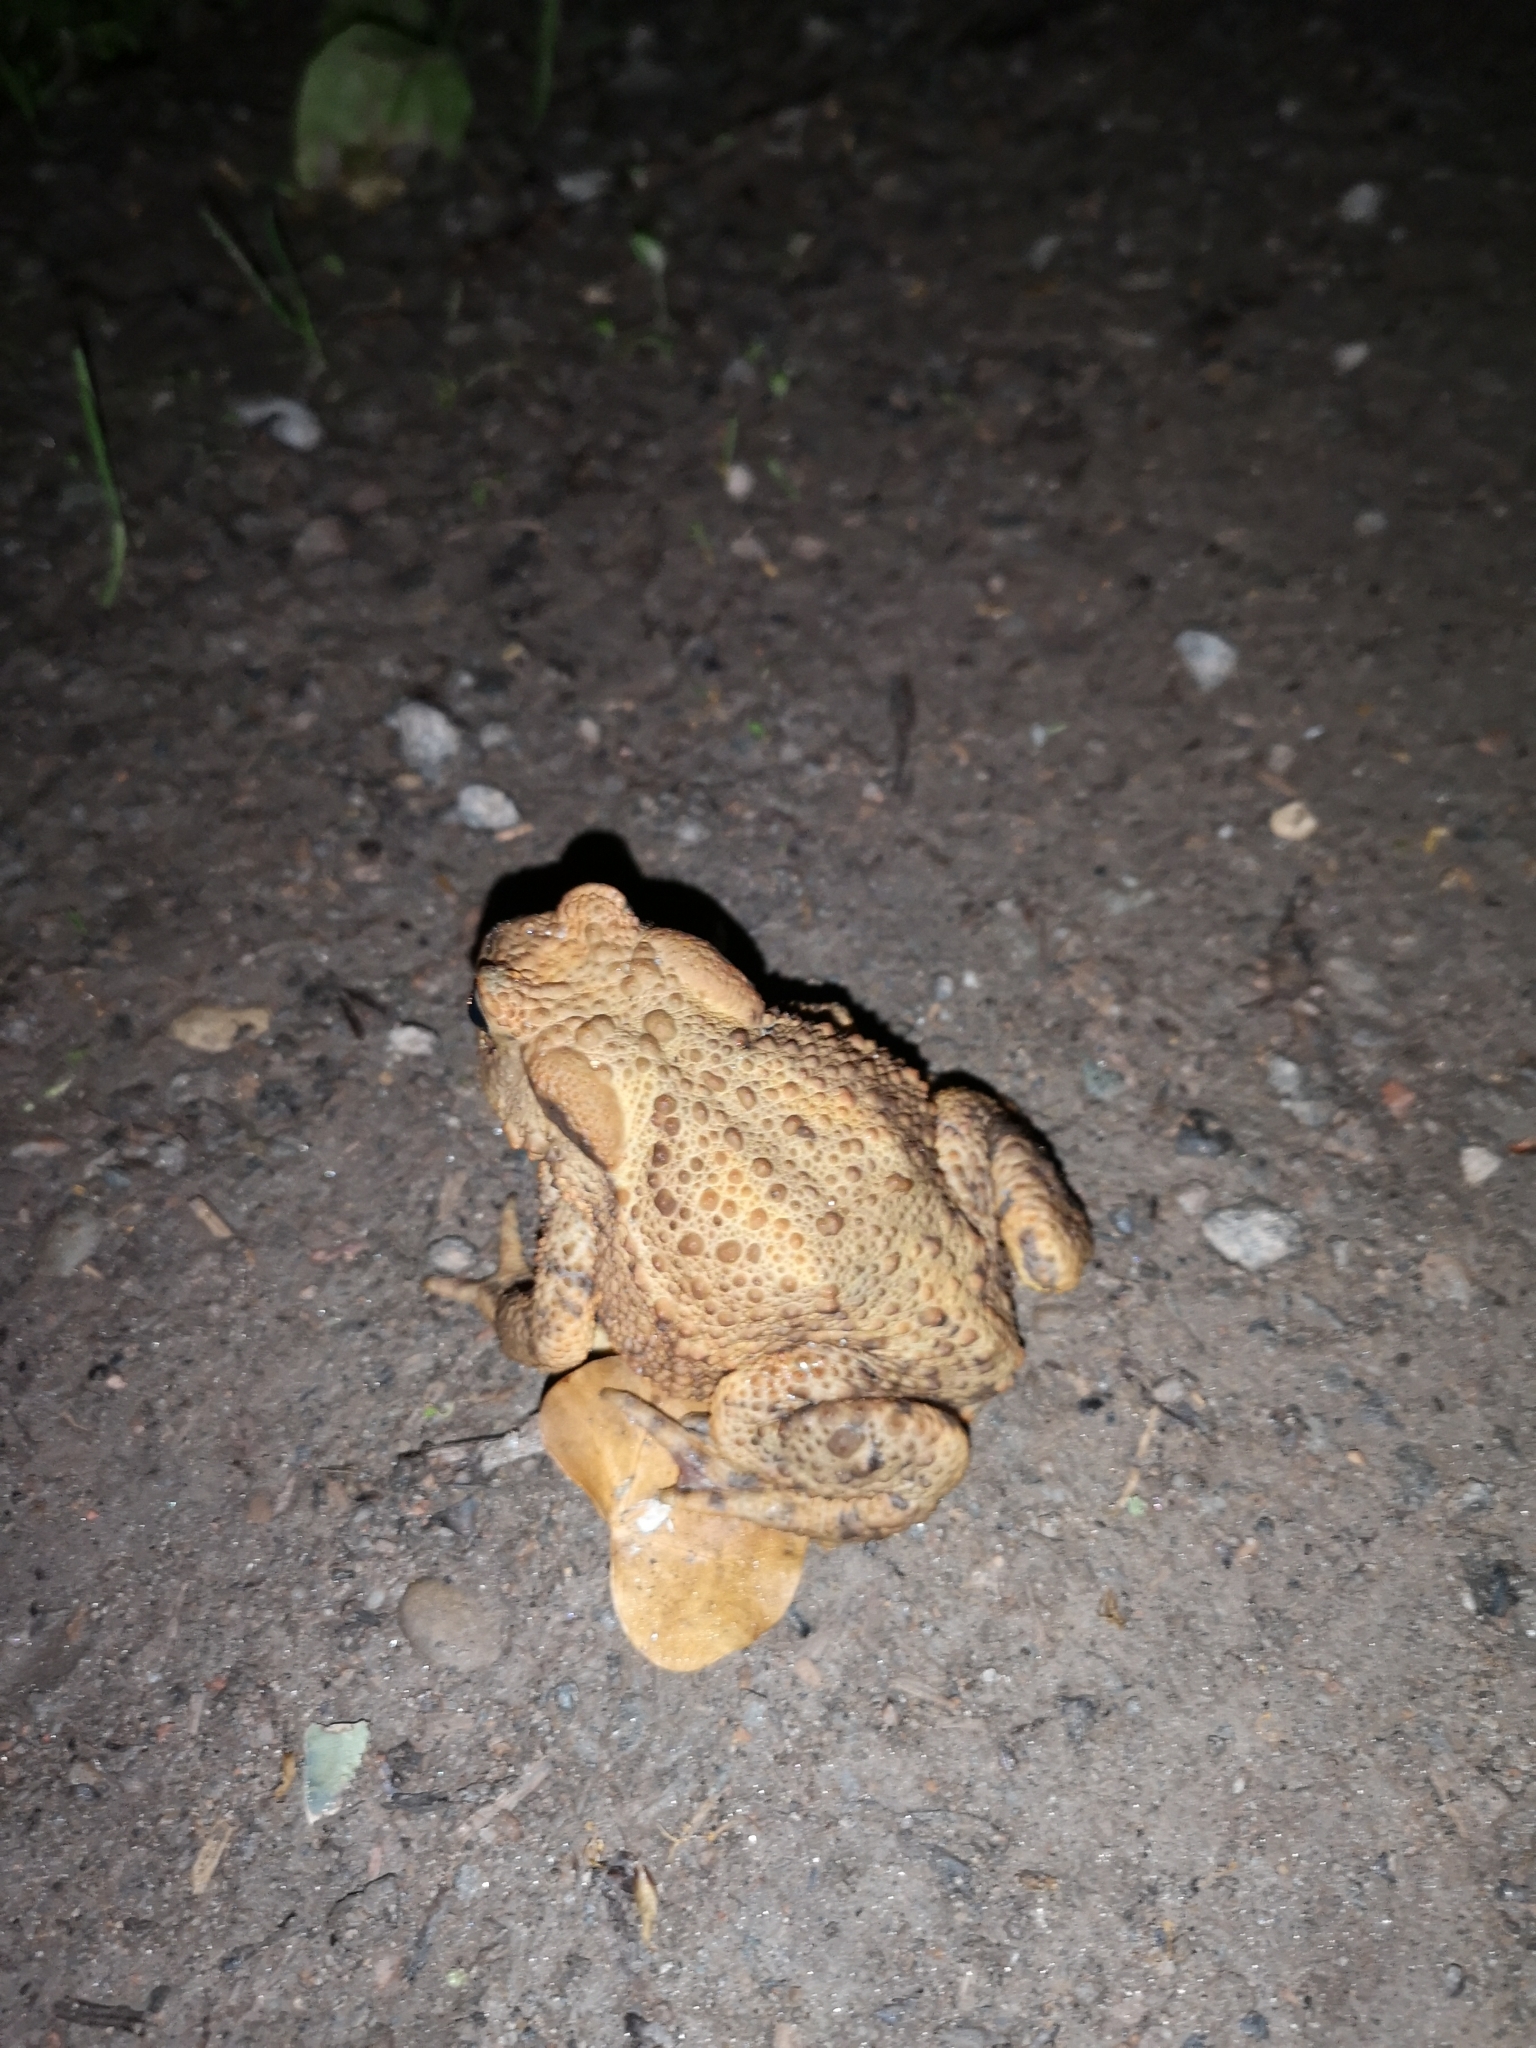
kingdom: Animalia
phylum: Chordata
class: Amphibia
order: Anura
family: Bufonidae
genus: Bufo
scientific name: Bufo bufo
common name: Common toad
